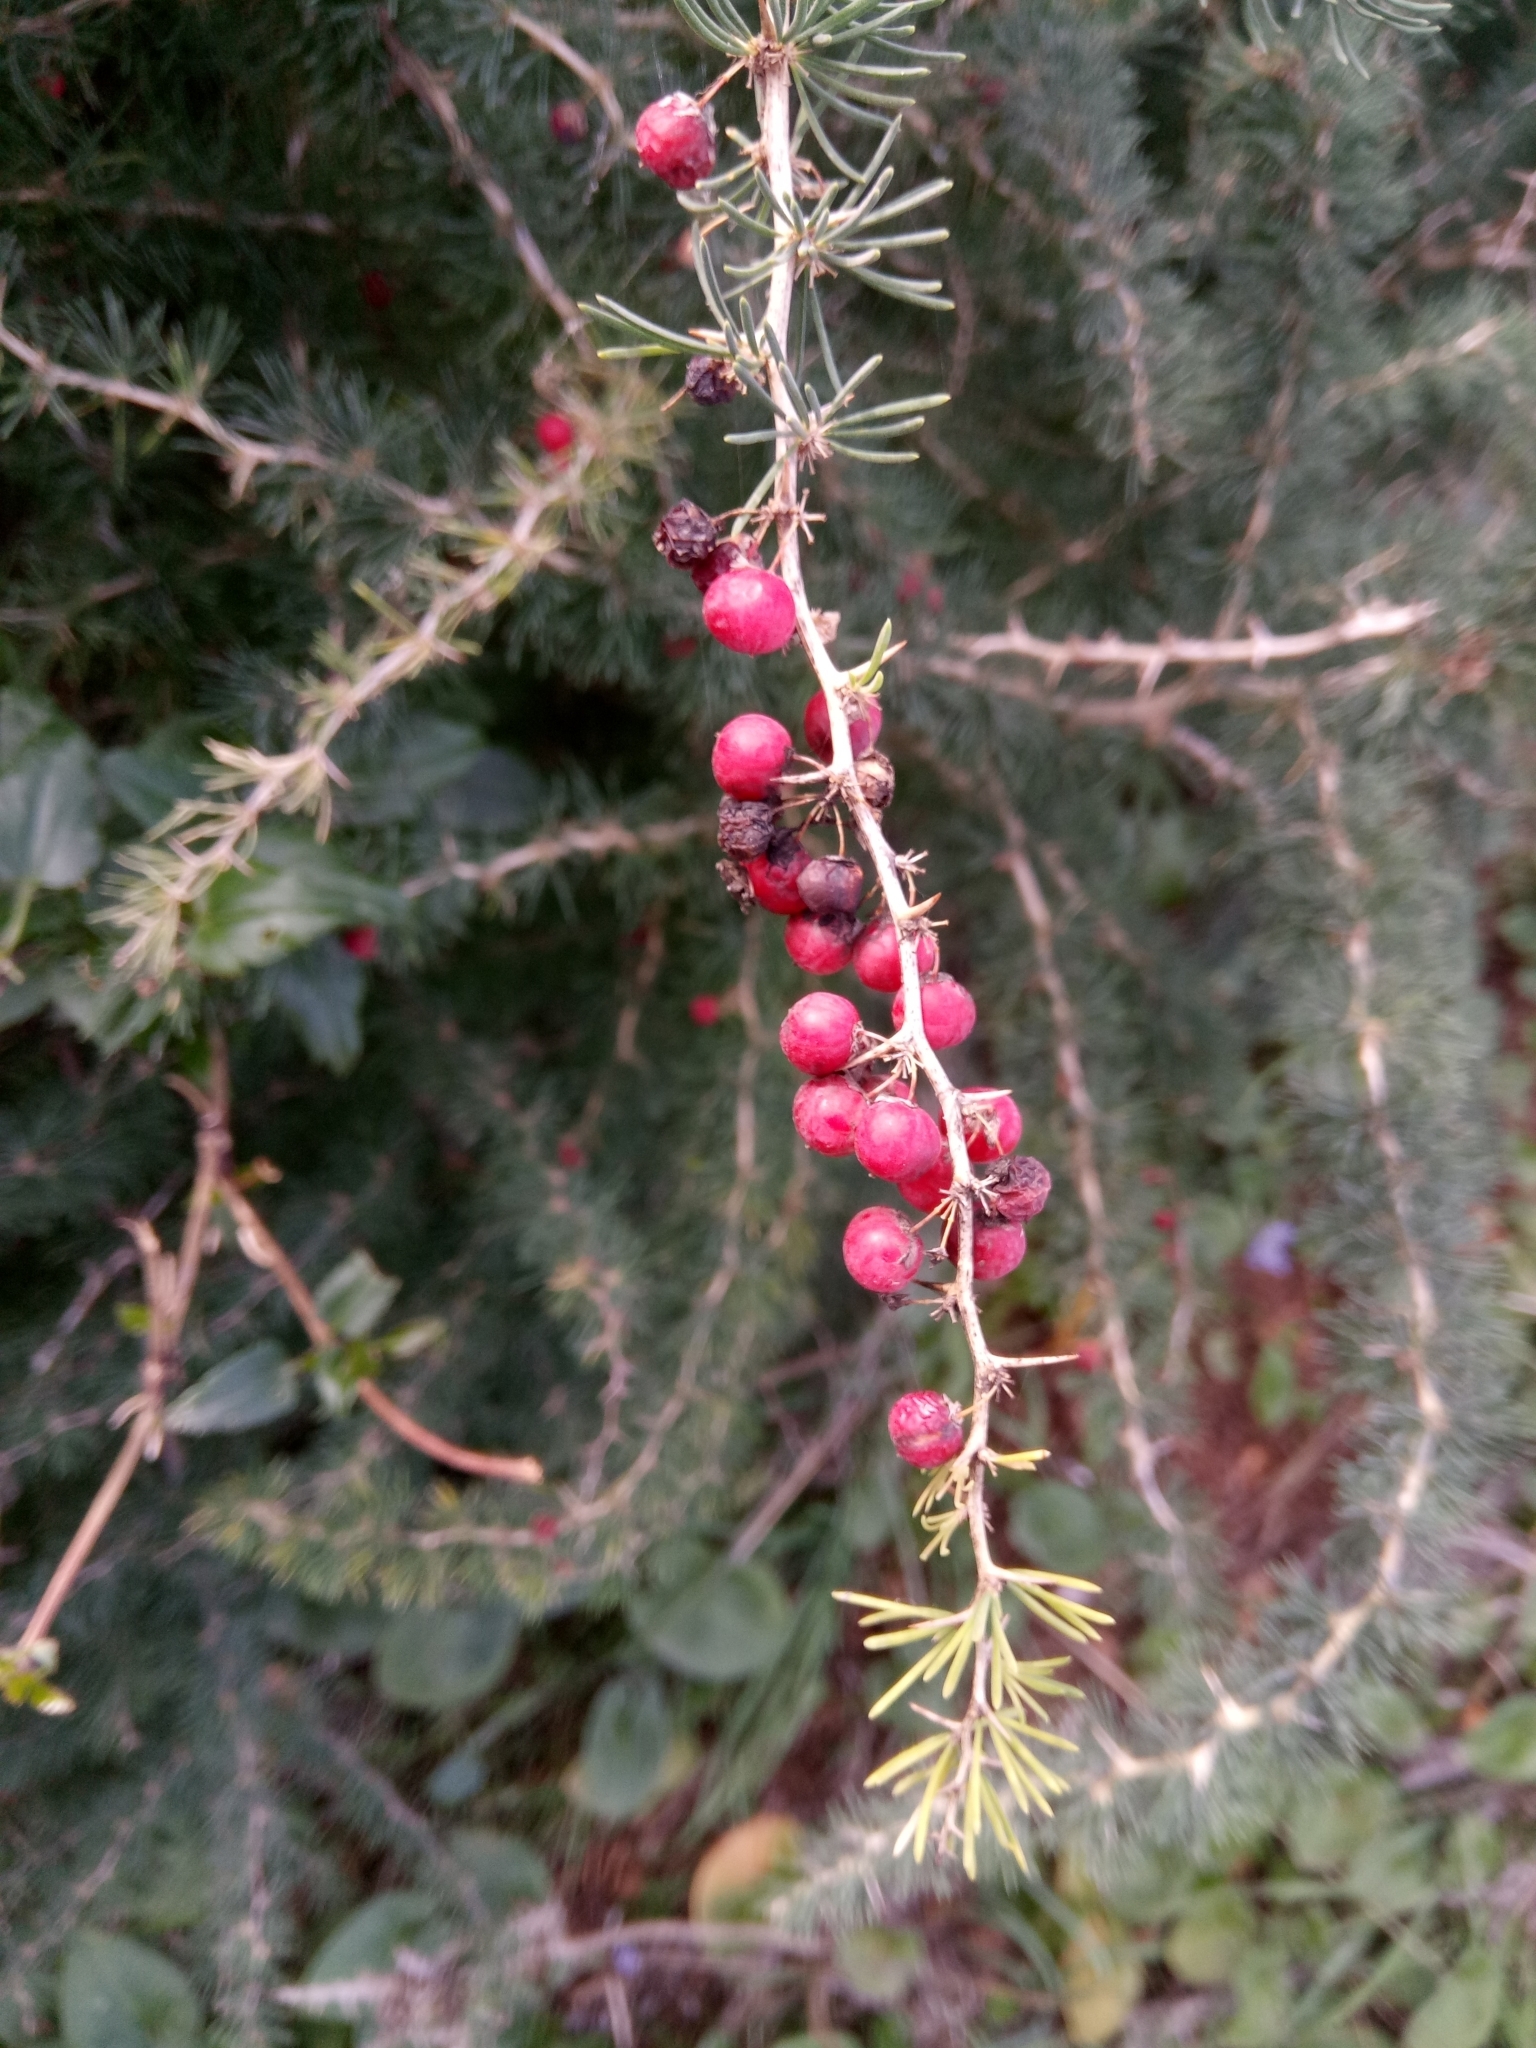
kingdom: Plantae
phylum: Tracheophyta
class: Liliopsida
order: Asparagales
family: Asparagaceae
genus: Asparagus
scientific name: Asparagus albus
